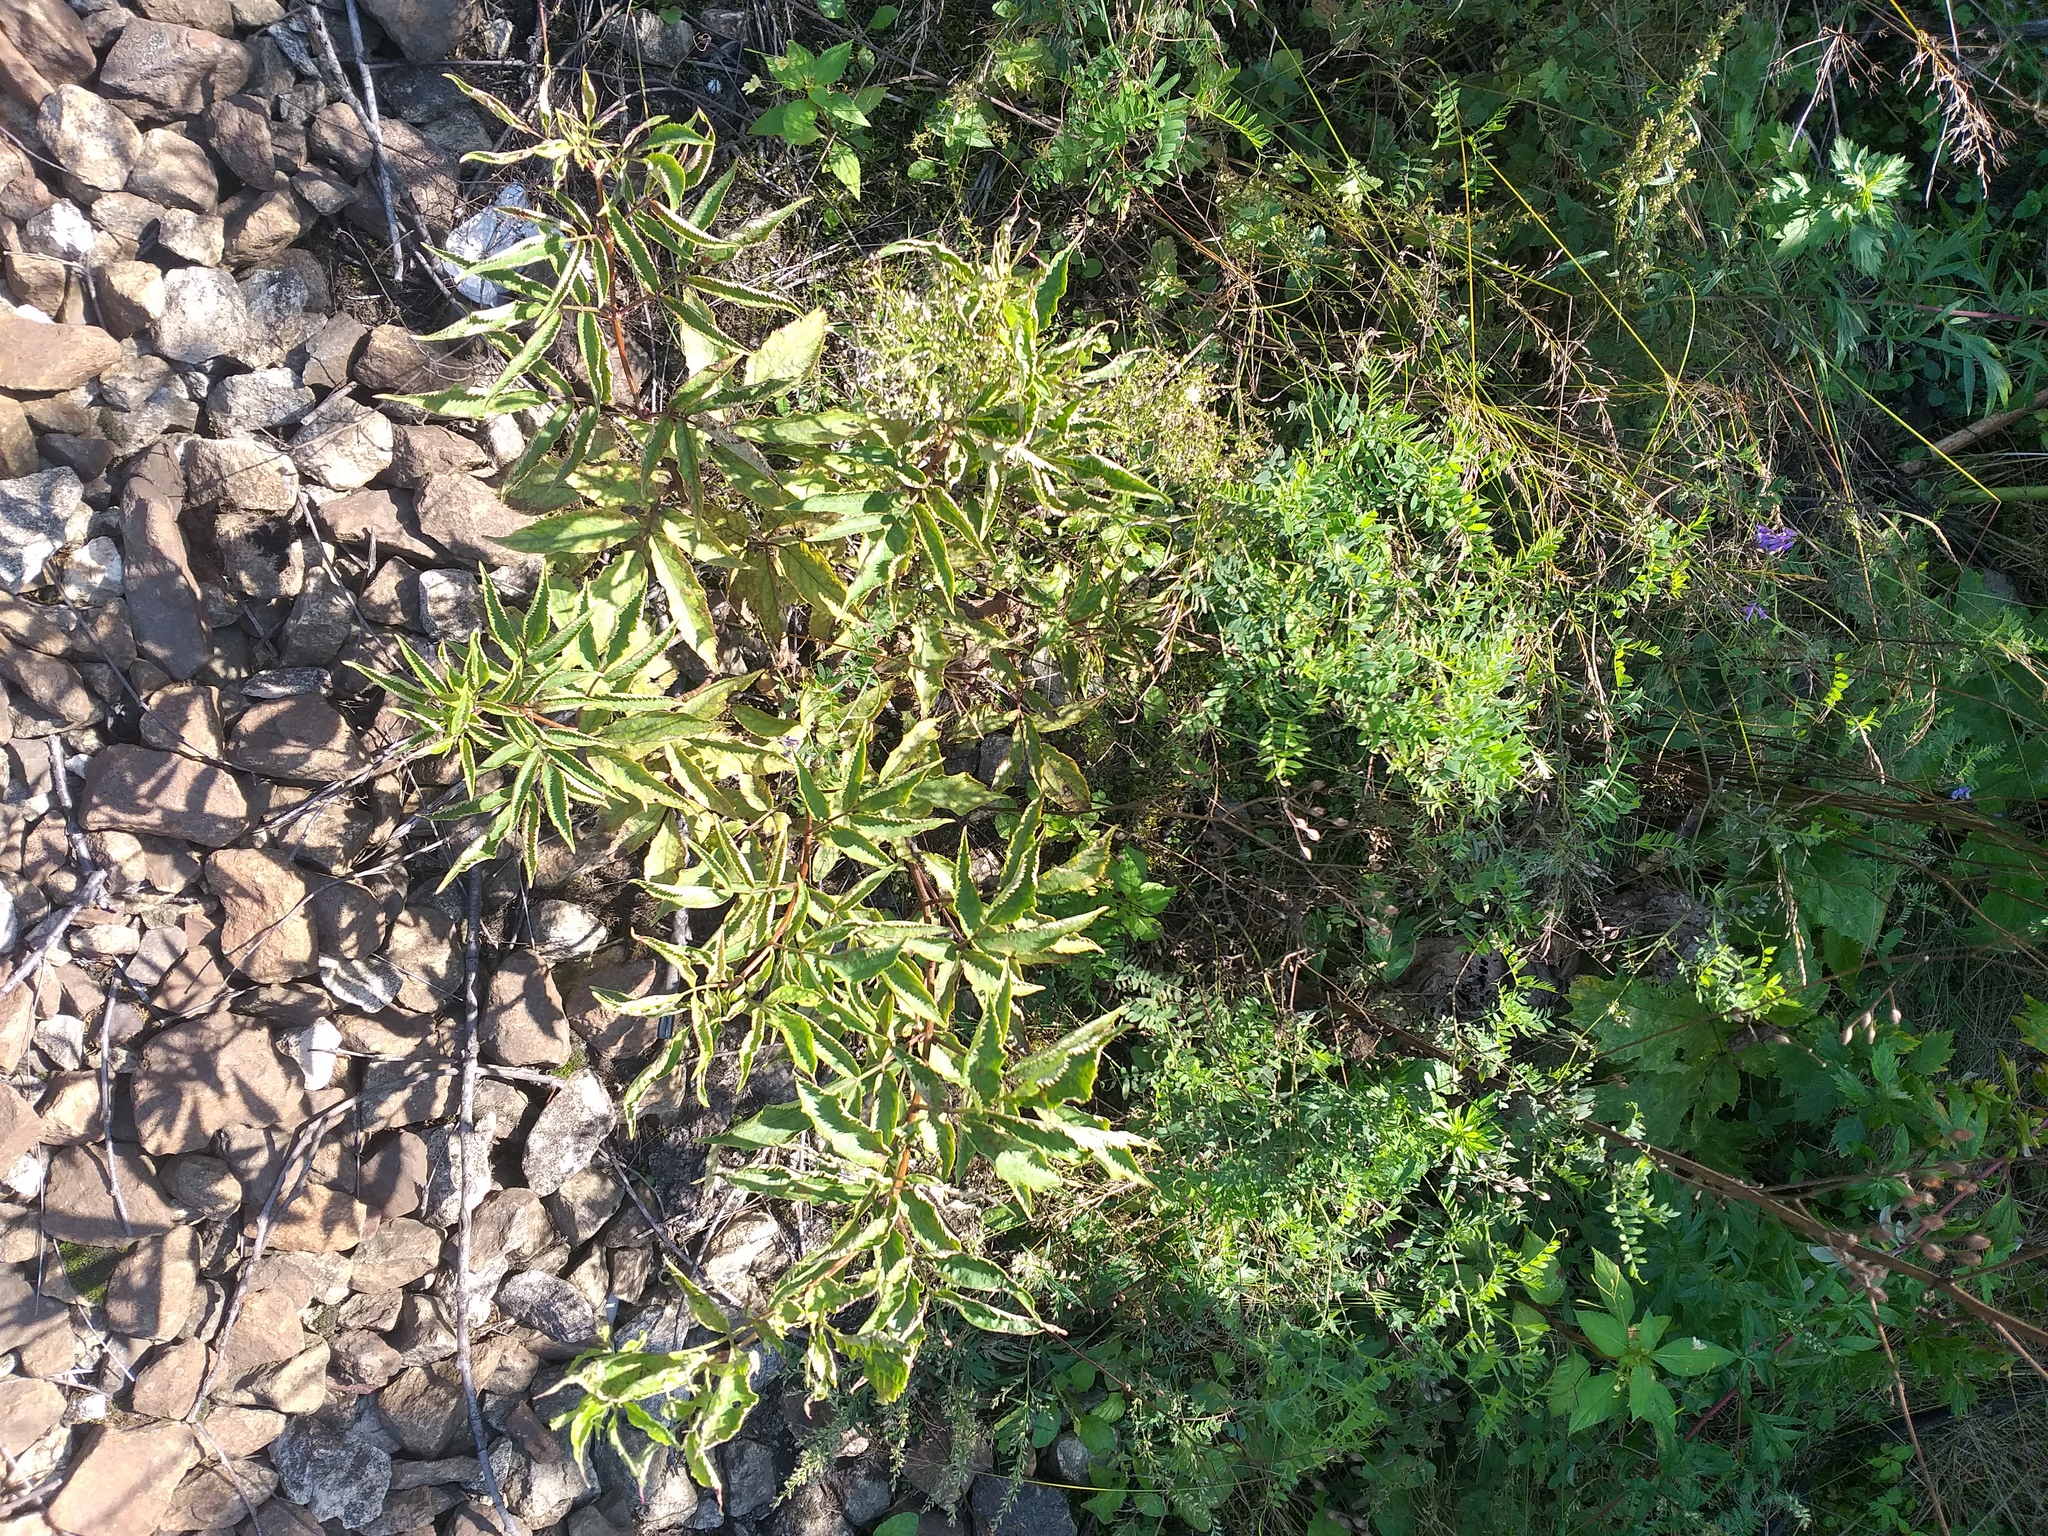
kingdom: Plantae
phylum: Tracheophyta
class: Magnoliopsida
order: Dipsacales
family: Viburnaceae
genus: Sambucus
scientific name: Sambucus racemosa
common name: Red-berried elder
